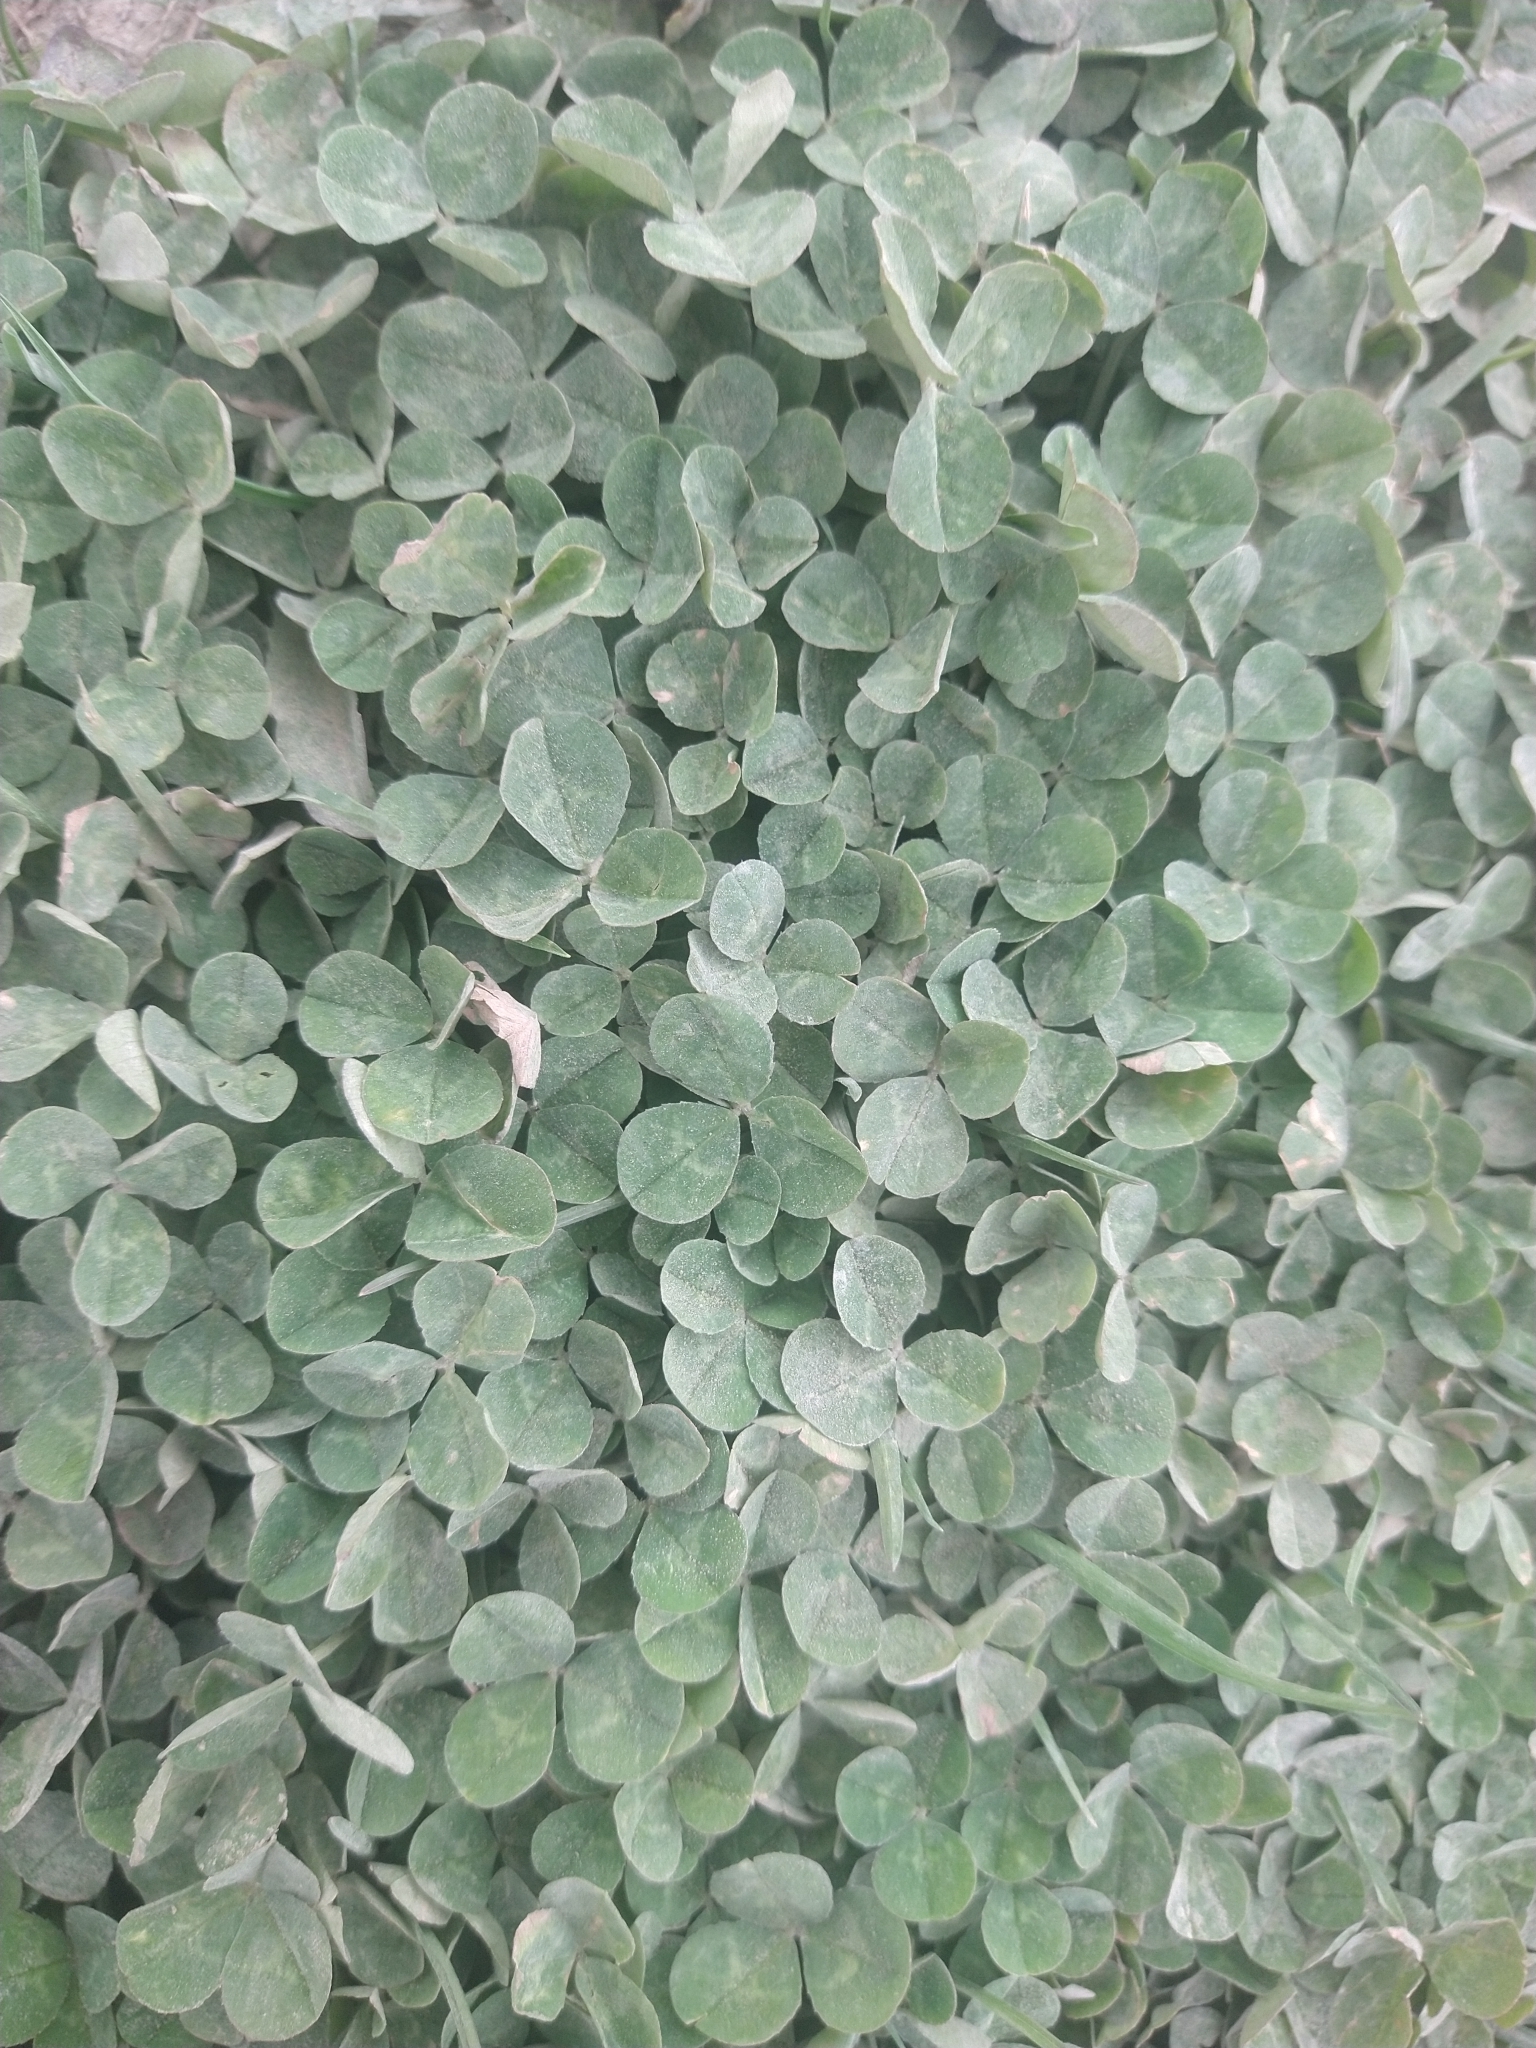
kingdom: Plantae
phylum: Tracheophyta
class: Magnoliopsida
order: Fabales
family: Fabaceae
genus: Trifolium
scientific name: Trifolium repens
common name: White clover
